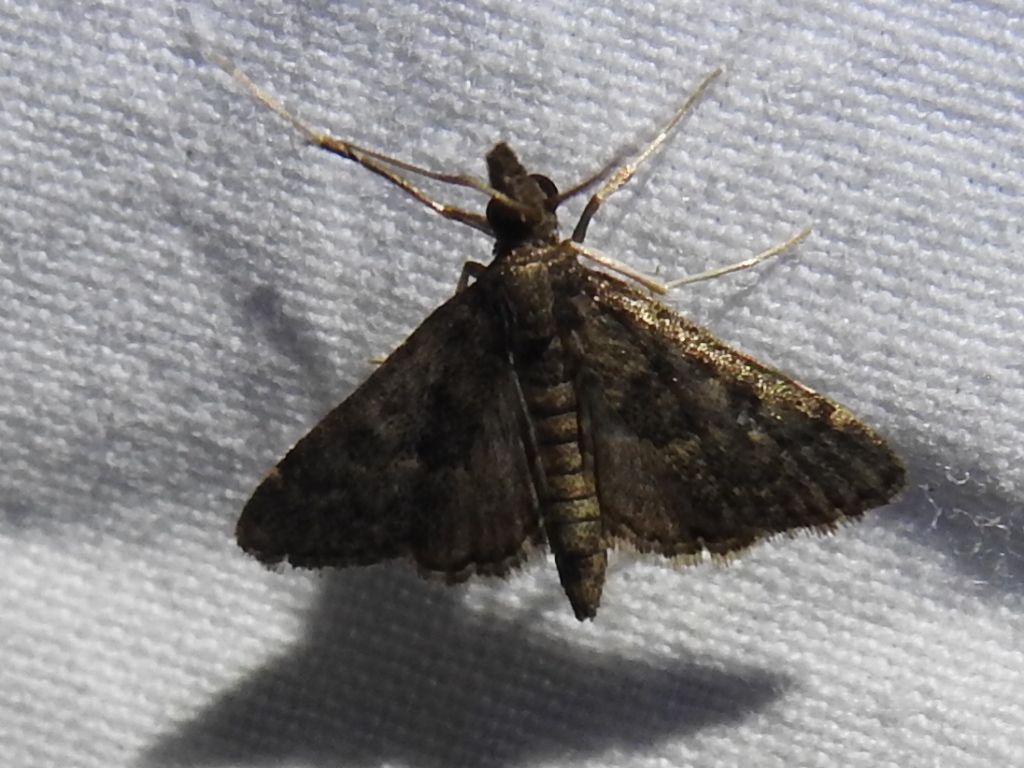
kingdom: Animalia
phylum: Arthropoda
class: Insecta
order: Lepidoptera
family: Crambidae
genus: Steniodes
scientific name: Steniodes declivalis
